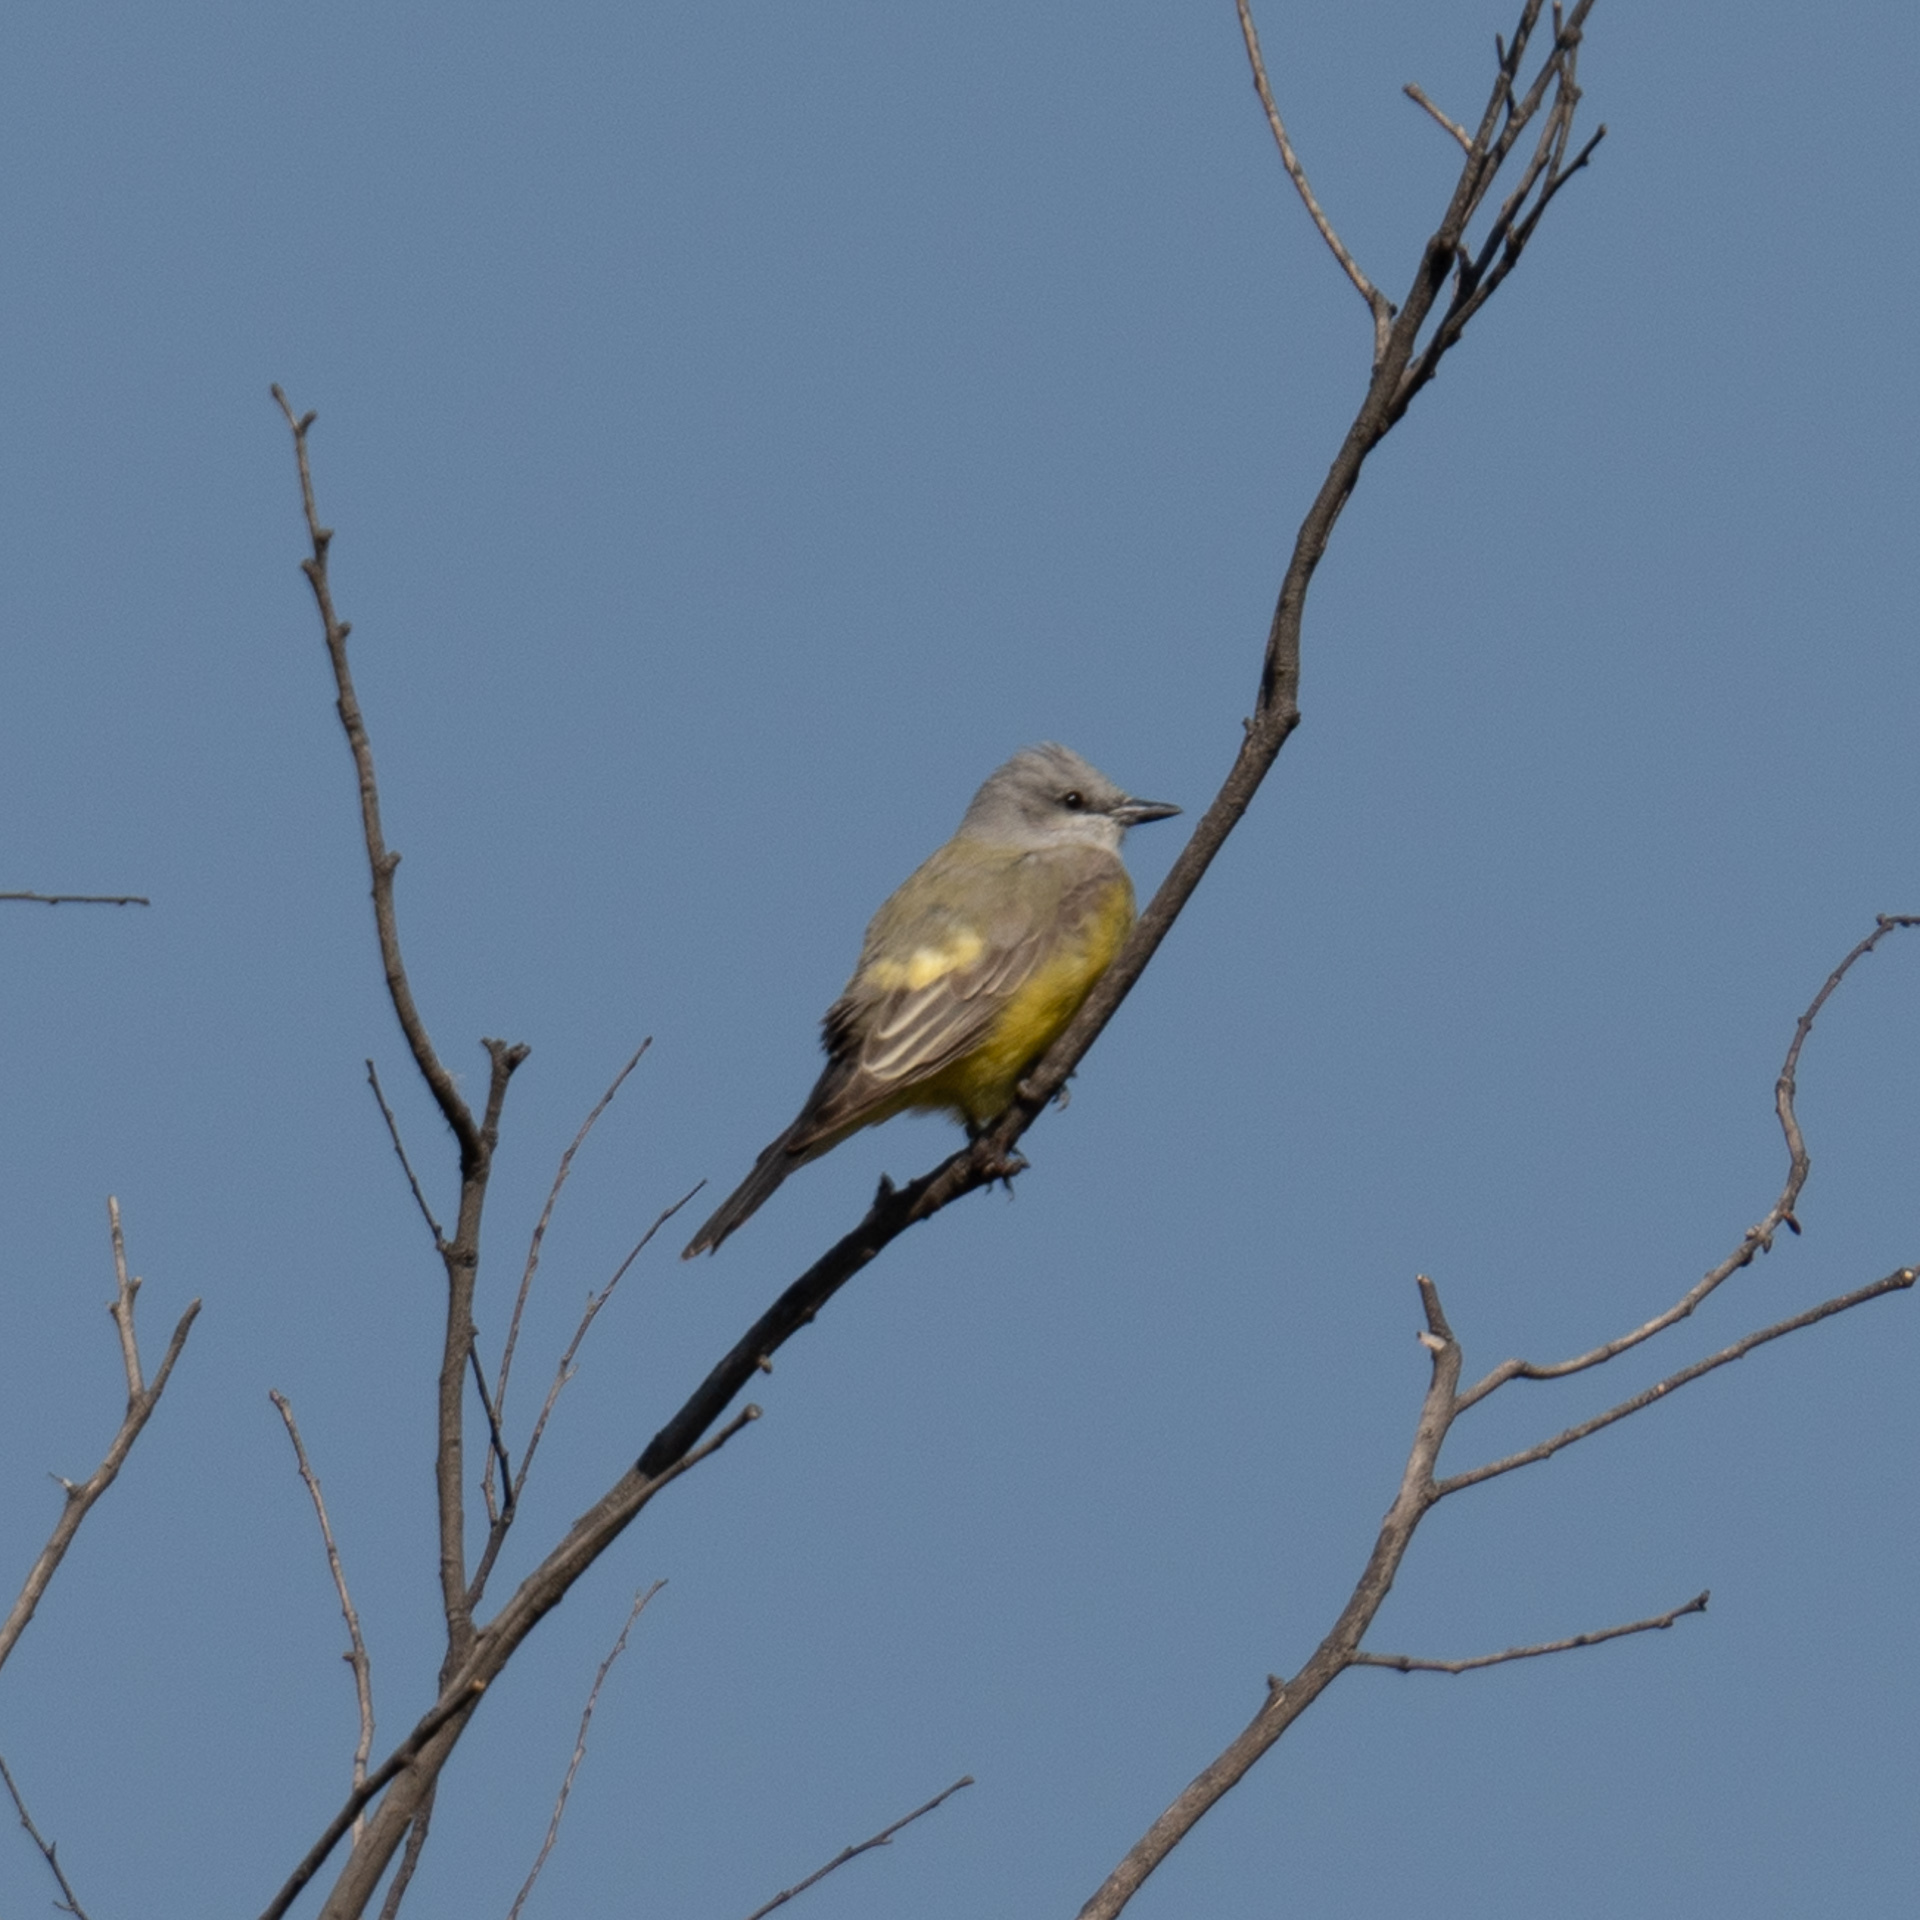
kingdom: Animalia
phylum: Chordata
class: Aves
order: Passeriformes
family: Tyrannidae
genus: Tyrannus
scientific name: Tyrannus vociferans
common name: Cassin's kingbird
